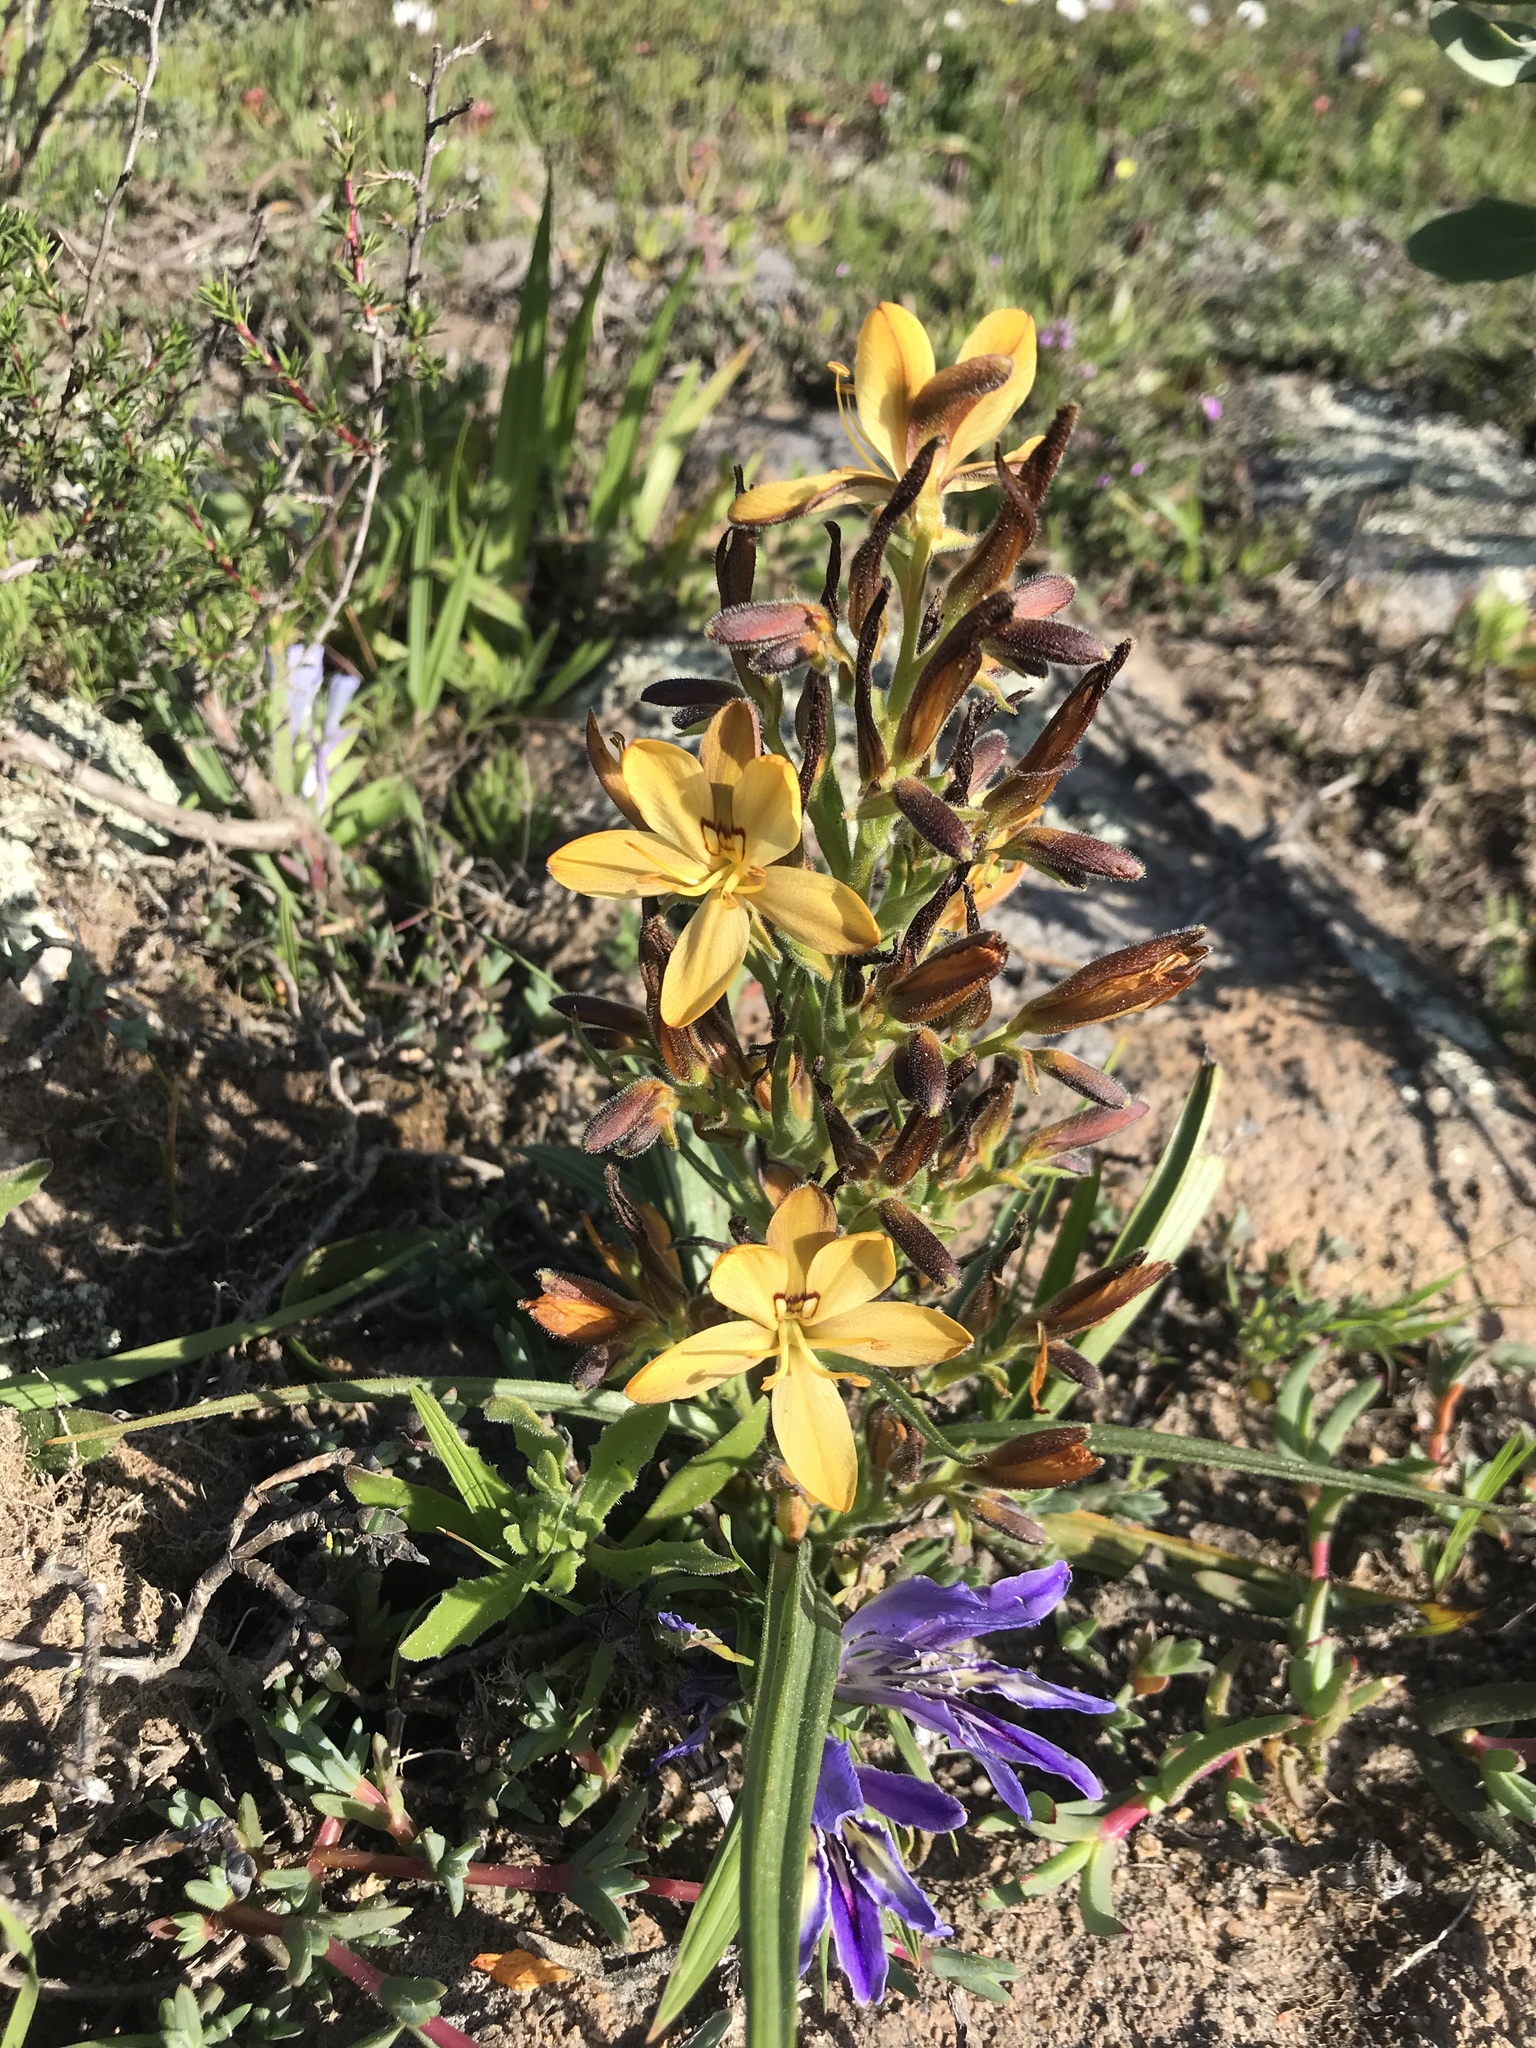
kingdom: Plantae
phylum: Tracheophyta
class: Liliopsida
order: Commelinales
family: Haemodoraceae
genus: Wachendorfia
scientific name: Wachendorfia multiflora
